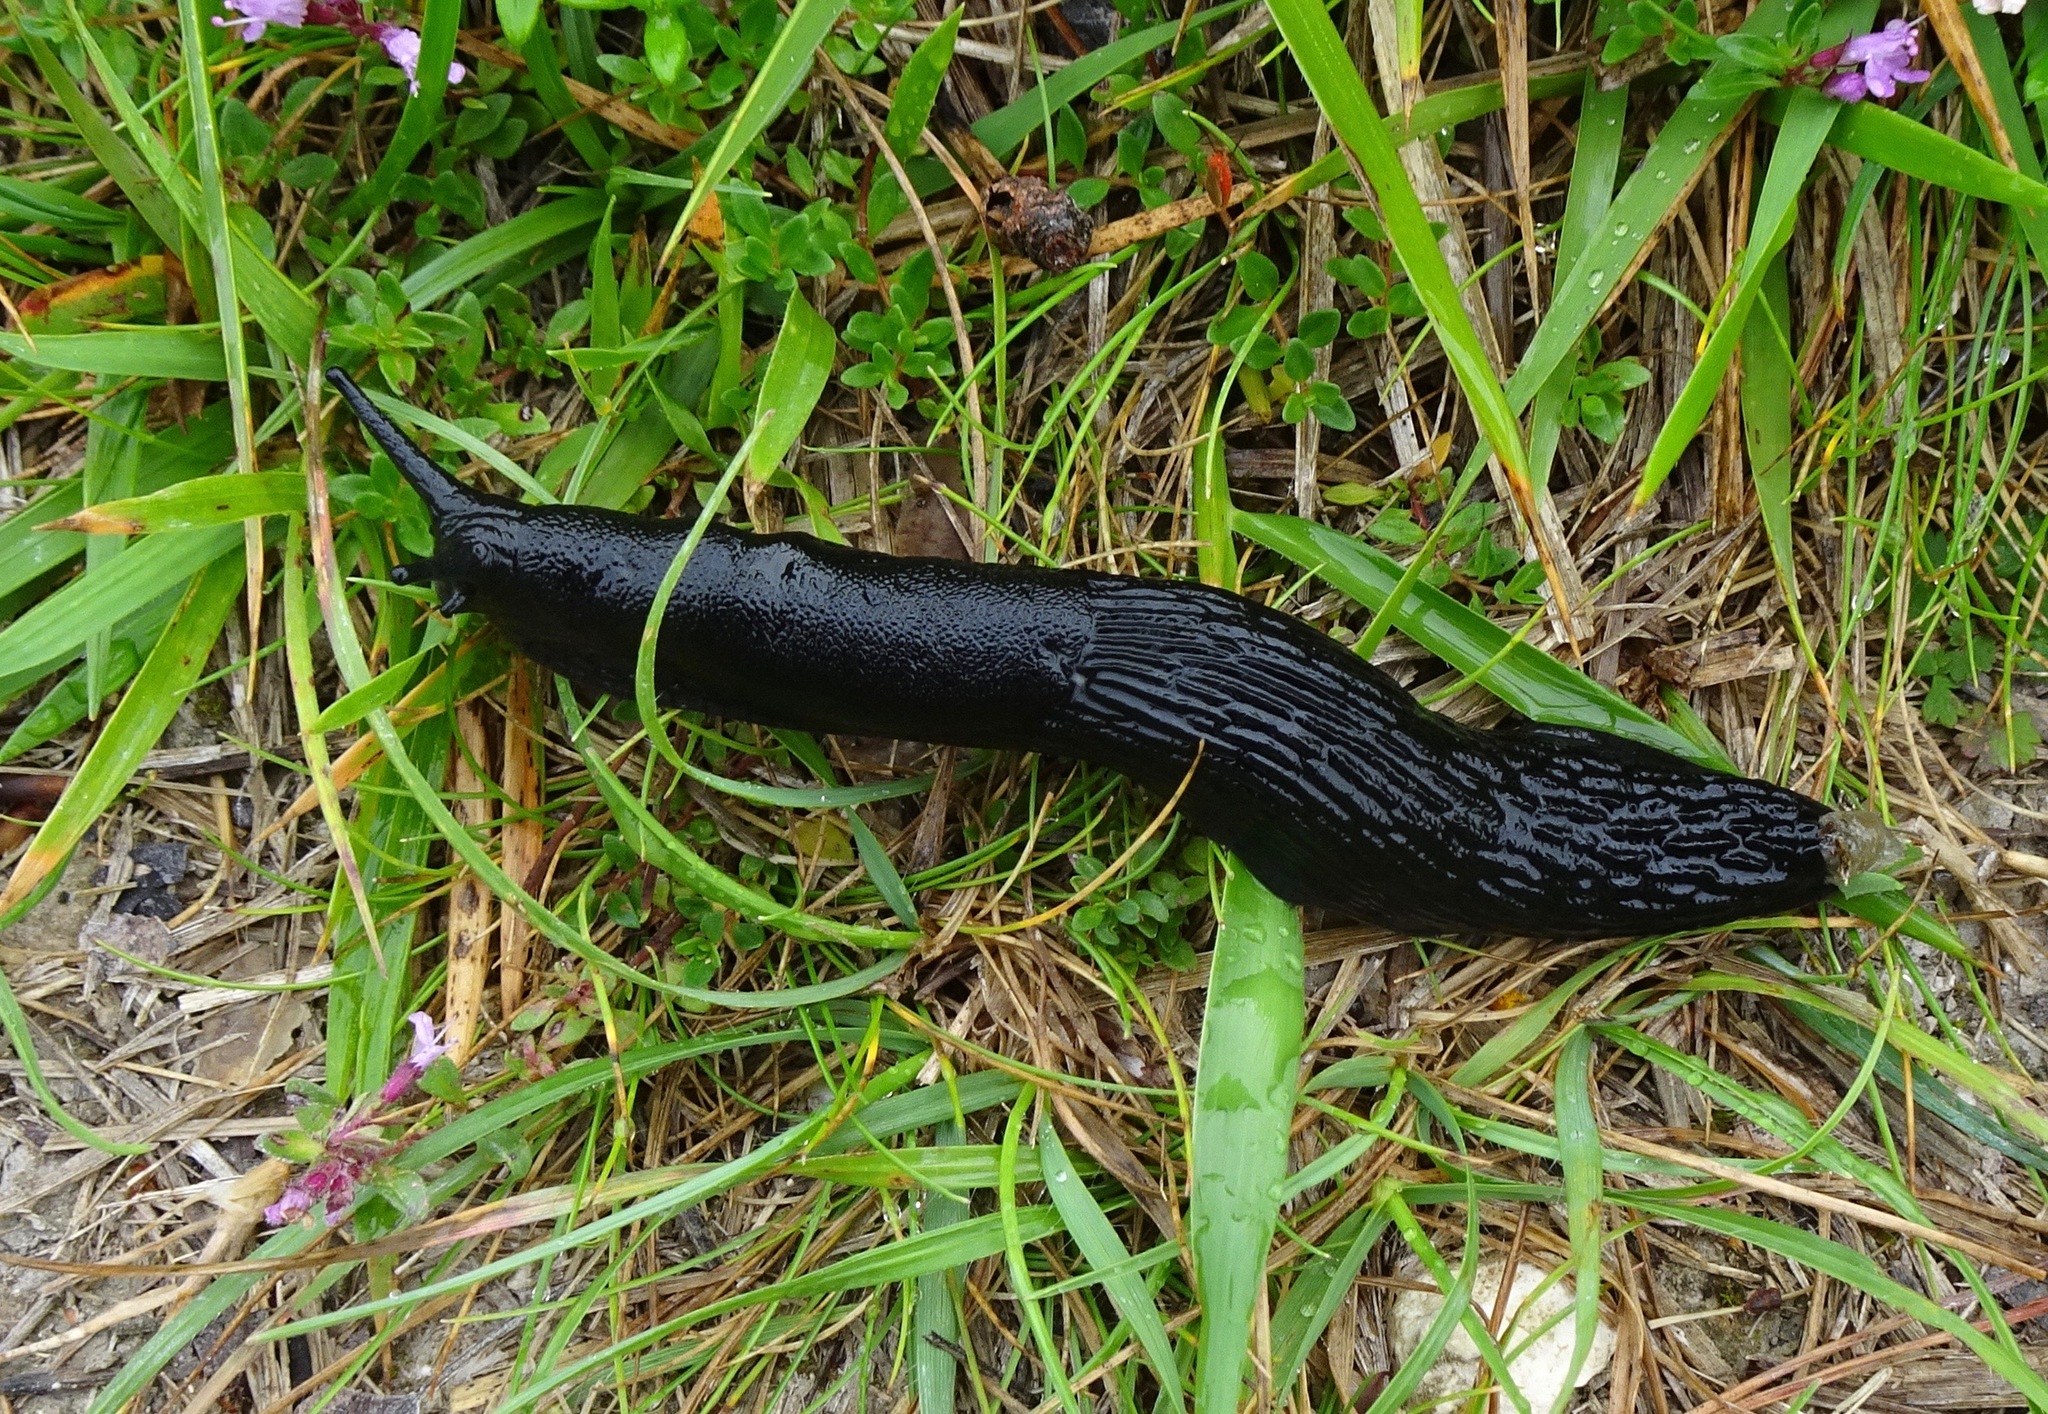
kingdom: Animalia
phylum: Mollusca
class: Gastropoda
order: Stylommatophora
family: Arionidae
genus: Arion
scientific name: Arion ater
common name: Black arion
